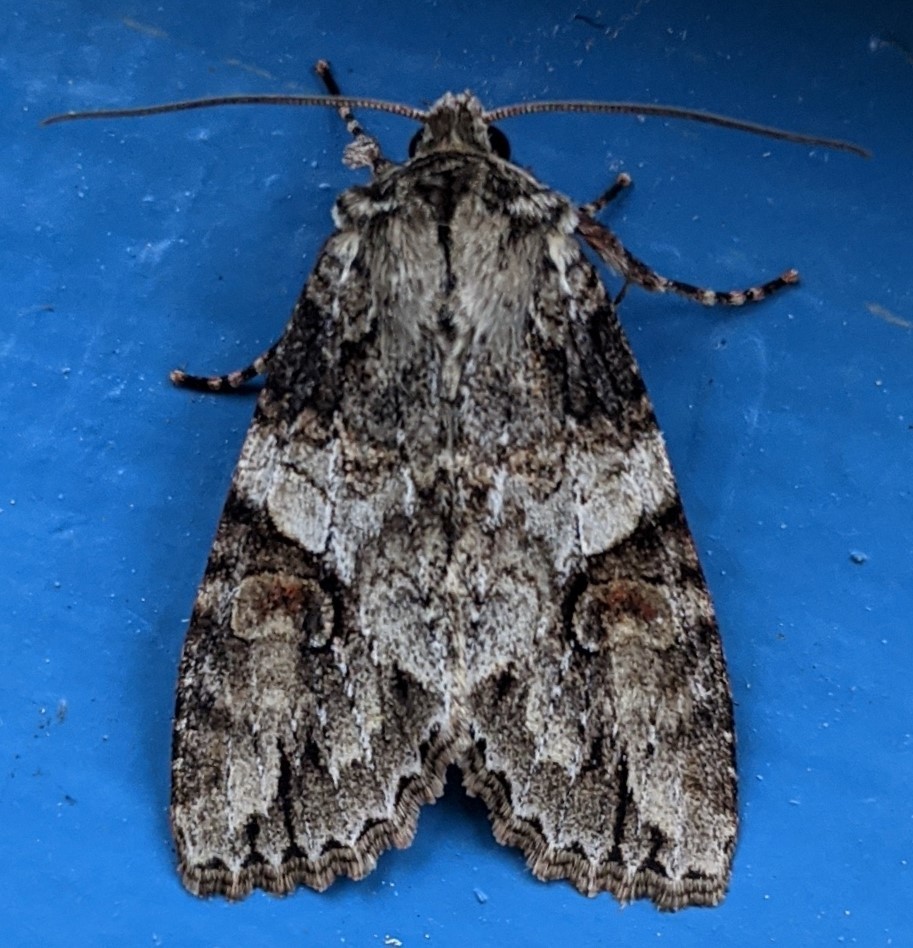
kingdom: Animalia
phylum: Arthropoda
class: Insecta
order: Lepidoptera
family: Noctuidae
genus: Achatia
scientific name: Achatia latex
